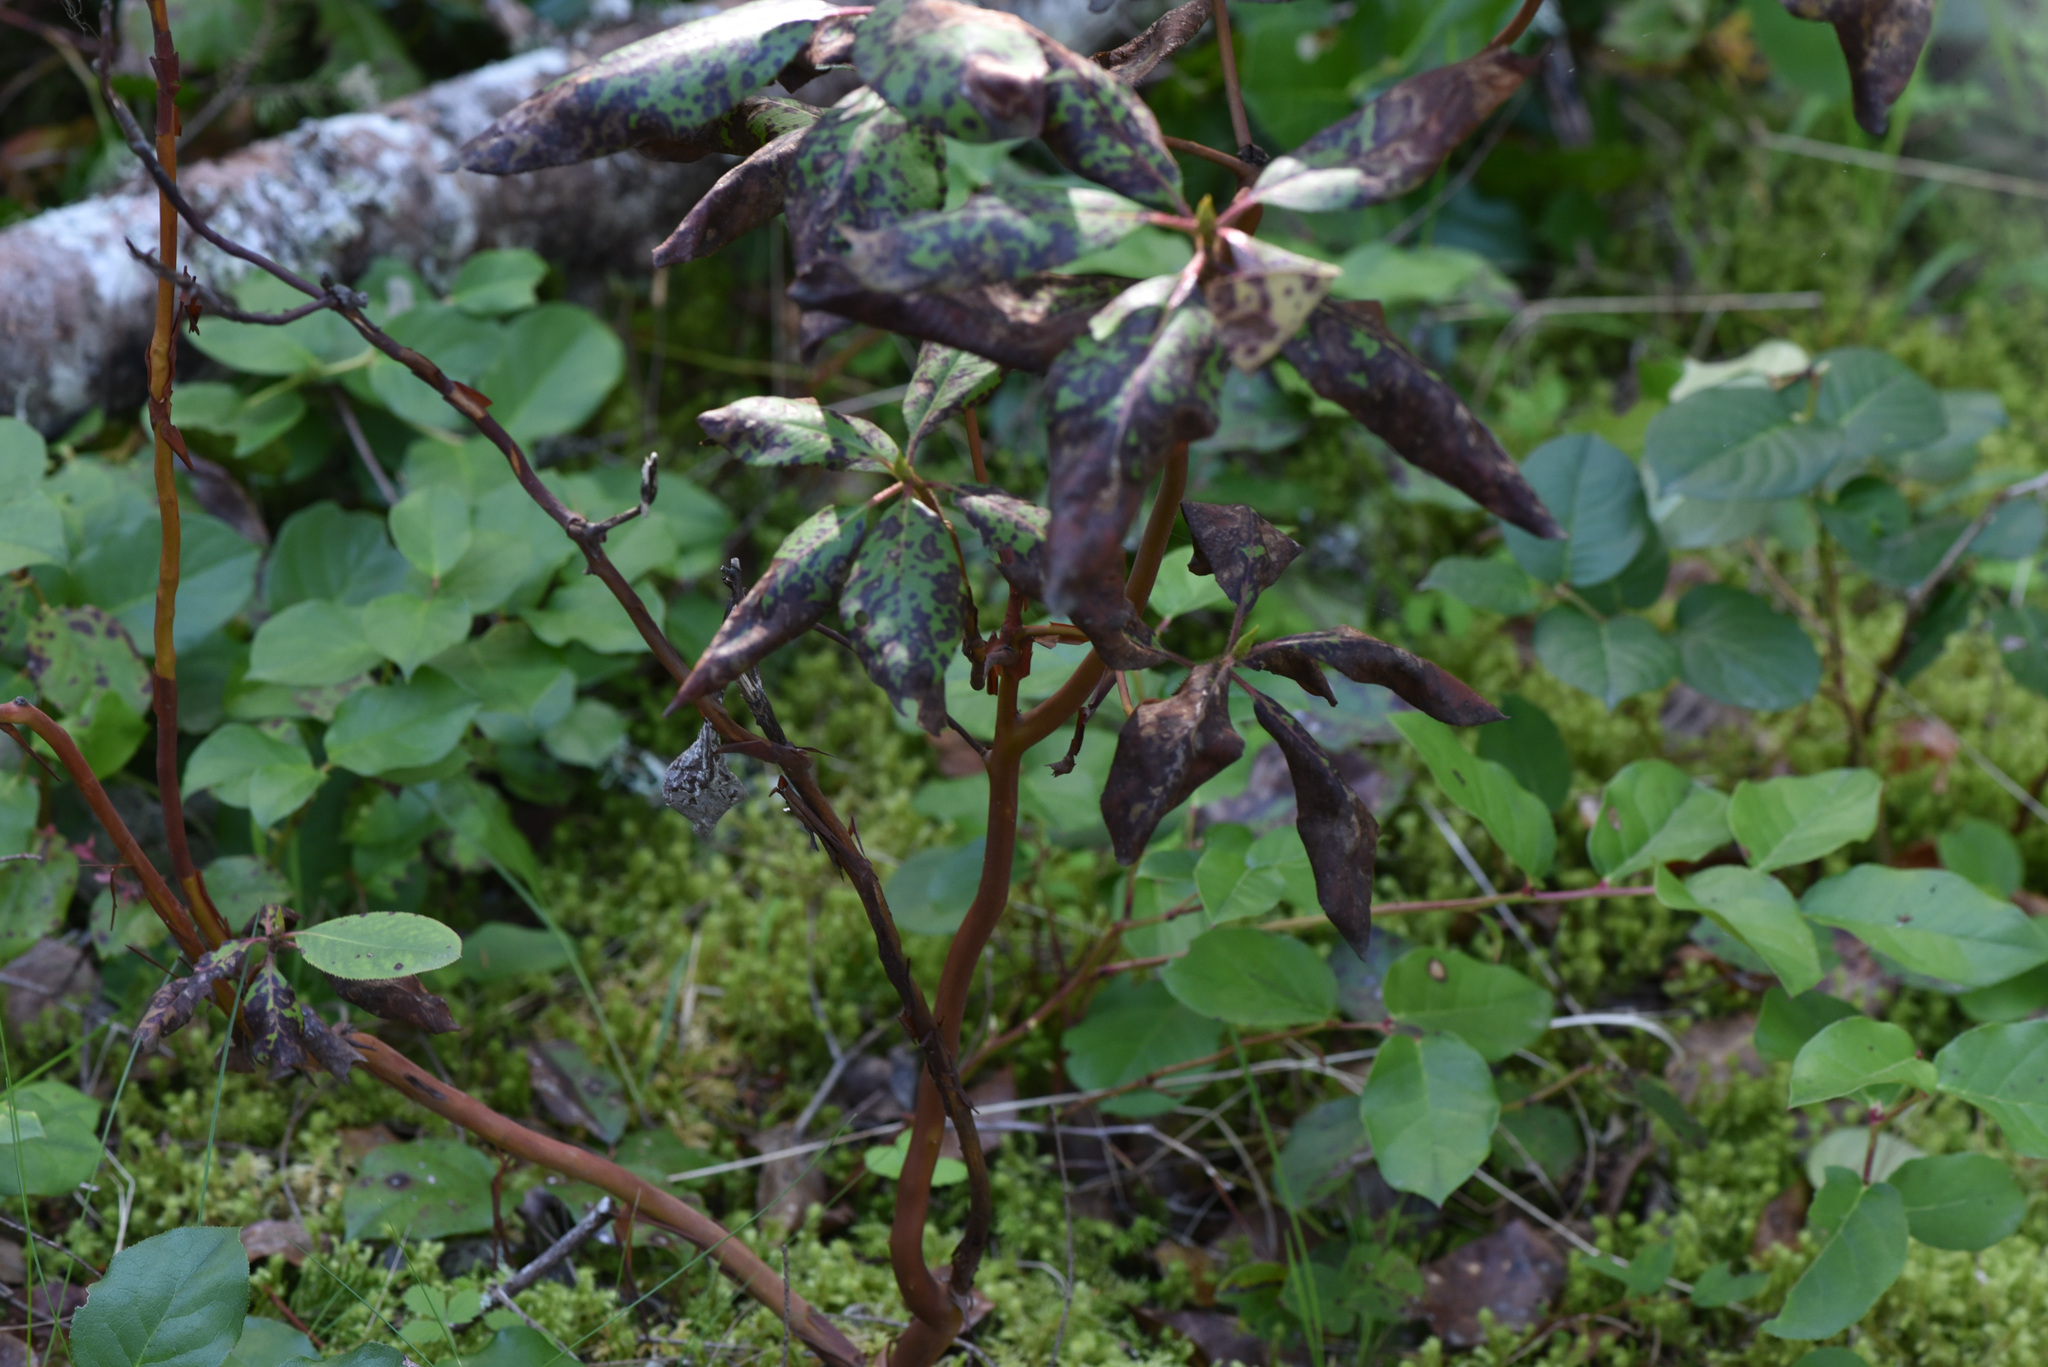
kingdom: Plantae
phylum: Tracheophyta
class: Magnoliopsida
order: Ericales
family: Ericaceae
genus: Arbutus
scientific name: Arbutus menziesii
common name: Pacific madrone
